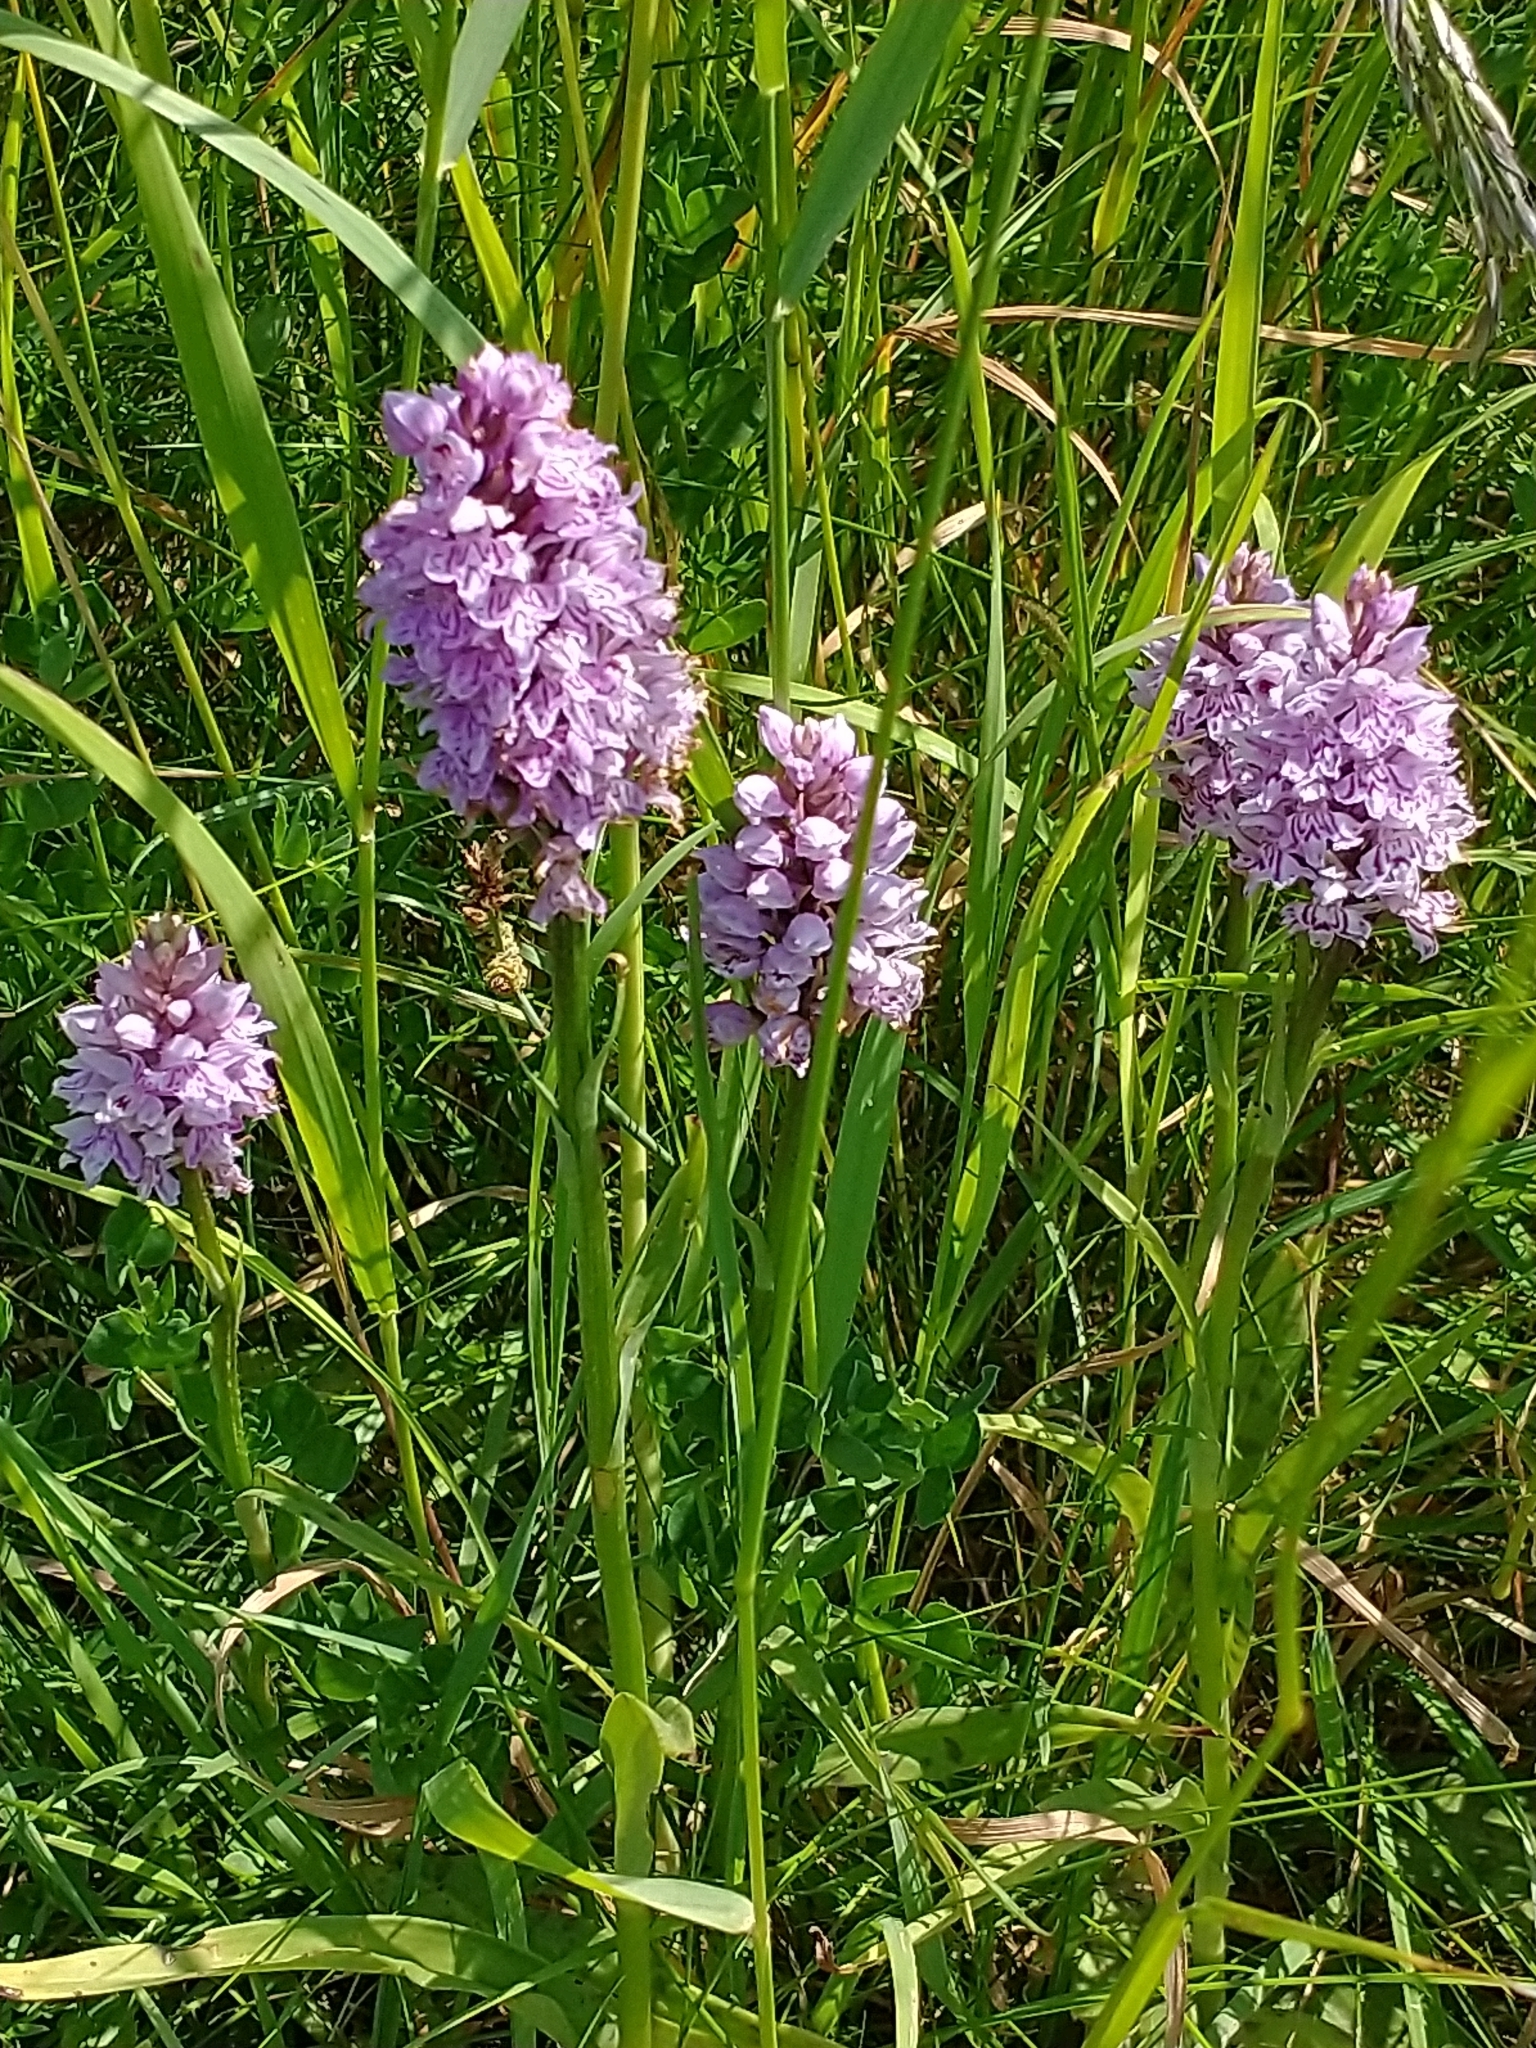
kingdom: Plantae
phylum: Tracheophyta
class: Liliopsida
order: Asparagales
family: Orchidaceae
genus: Dactylorhiza
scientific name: Dactylorhiza maculata
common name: Heath spotted-orchid
